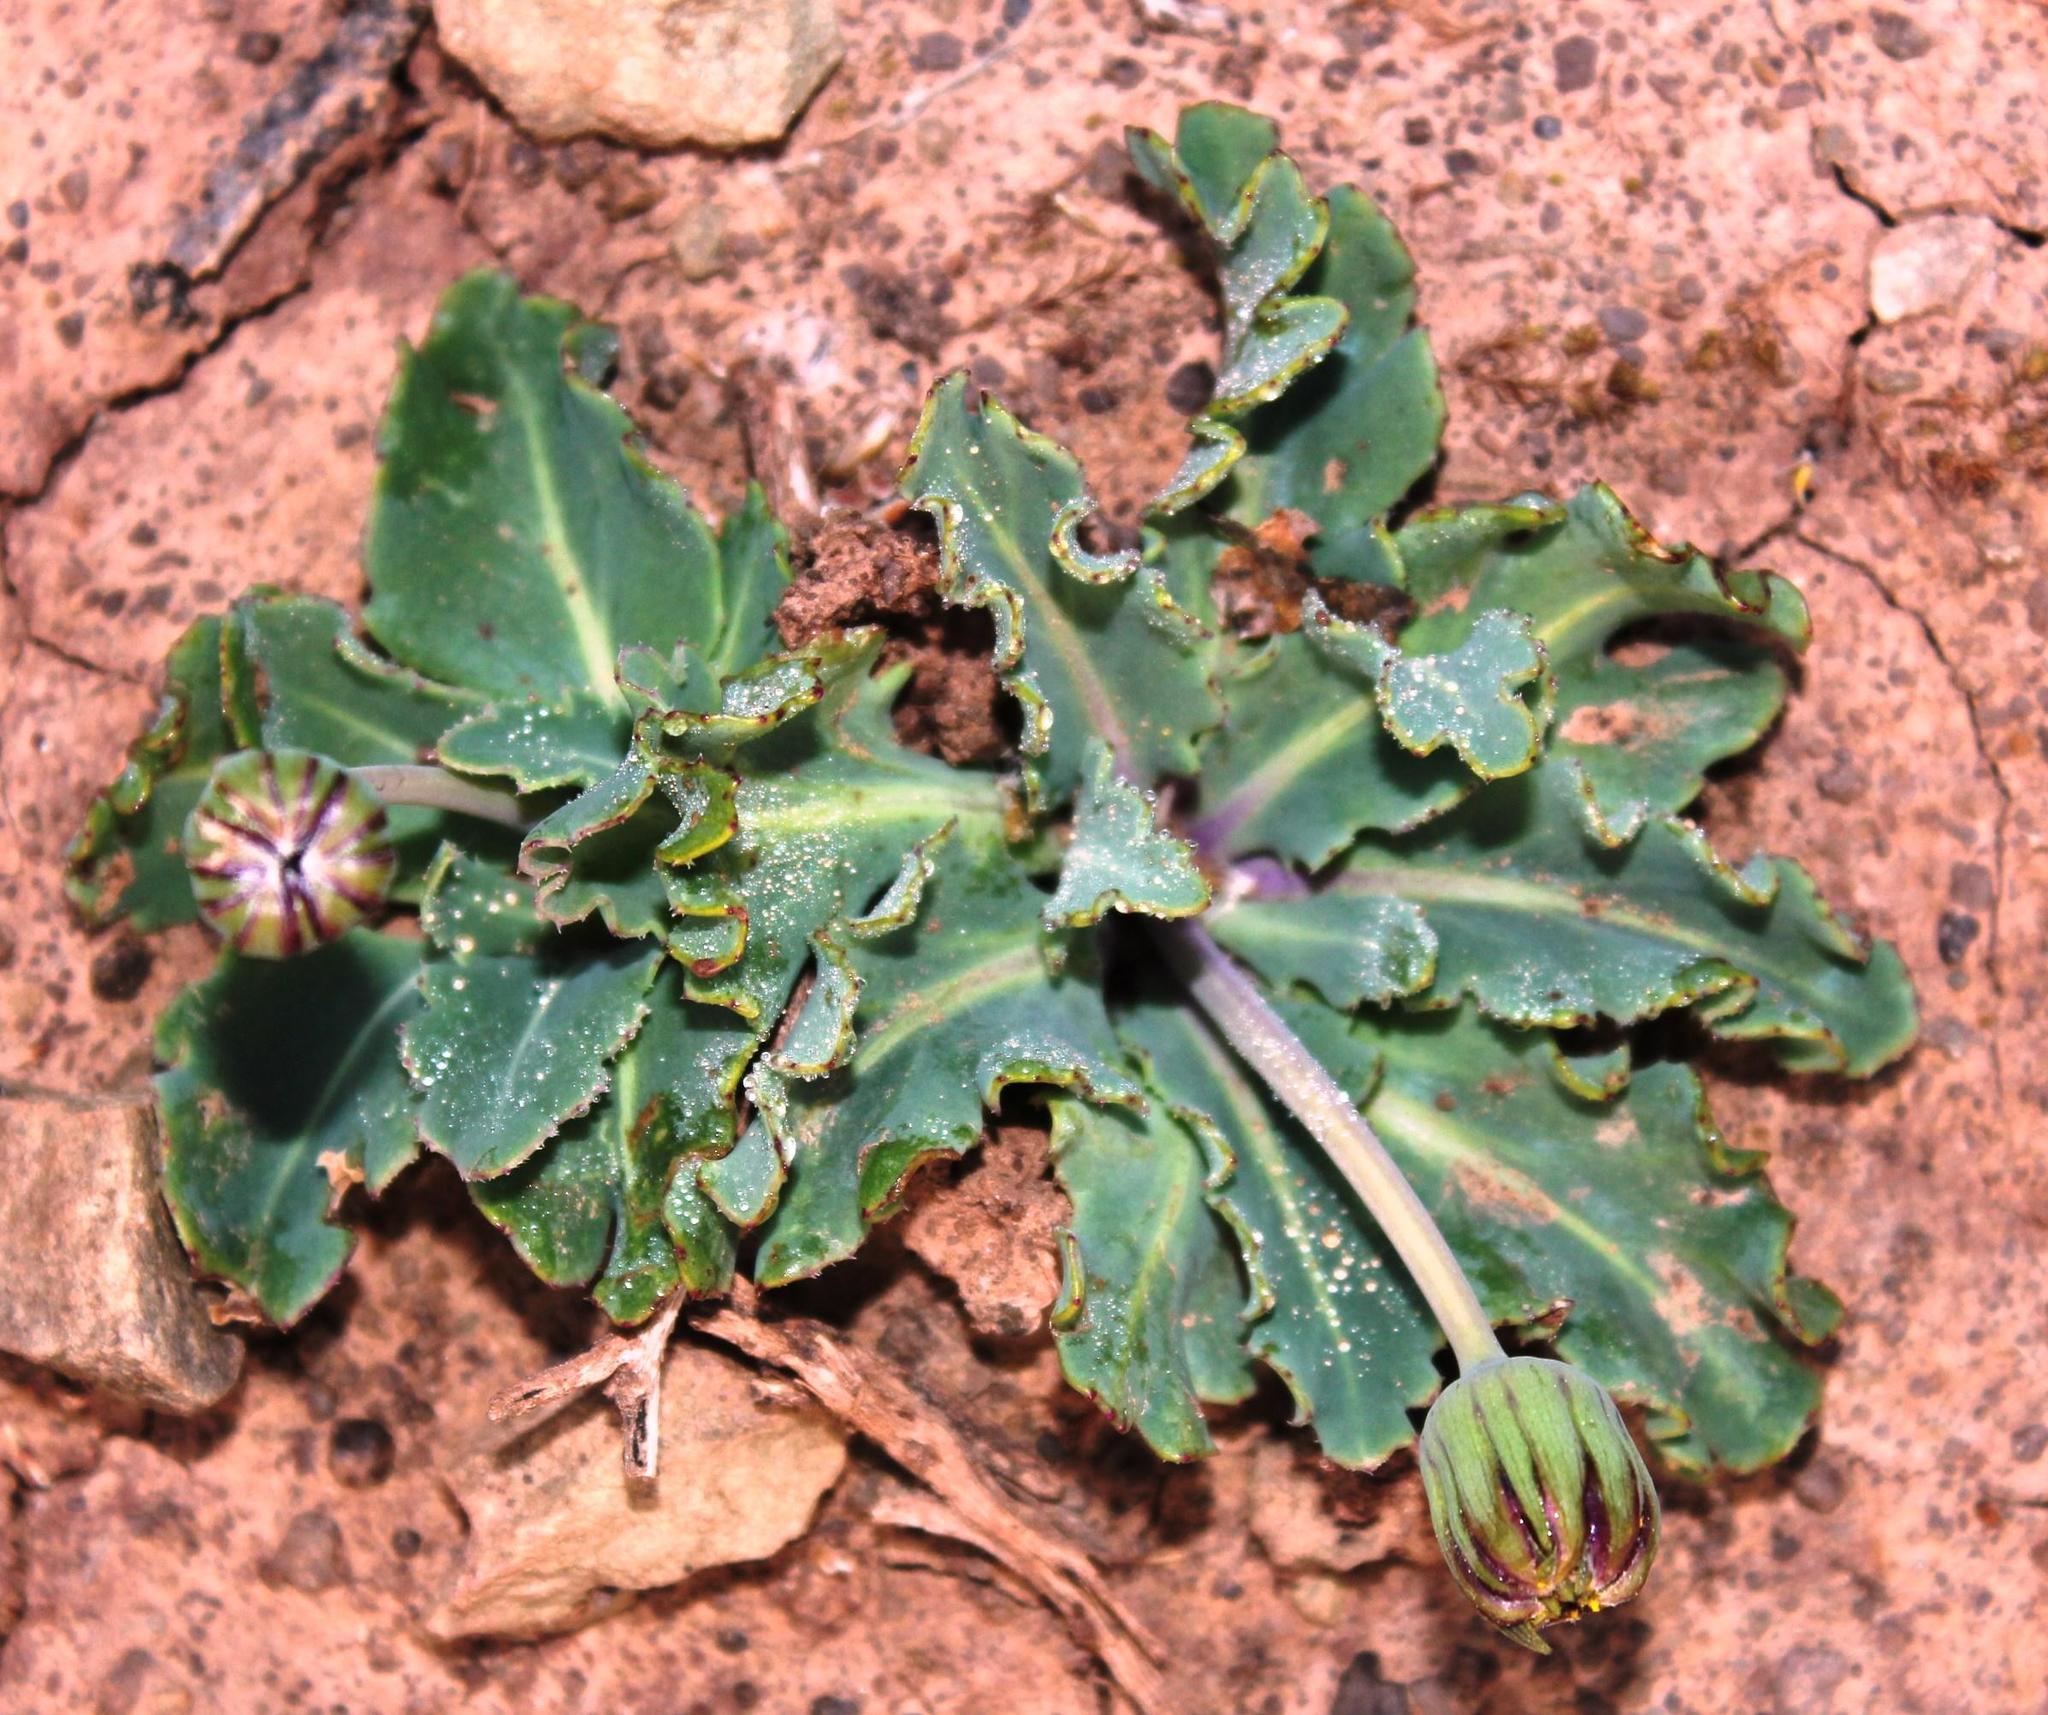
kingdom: Plantae
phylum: Tracheophyta
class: Magnoliopsida
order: Asterales
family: Asteraceae
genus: Othonna
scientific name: Othonna auriculifolia
